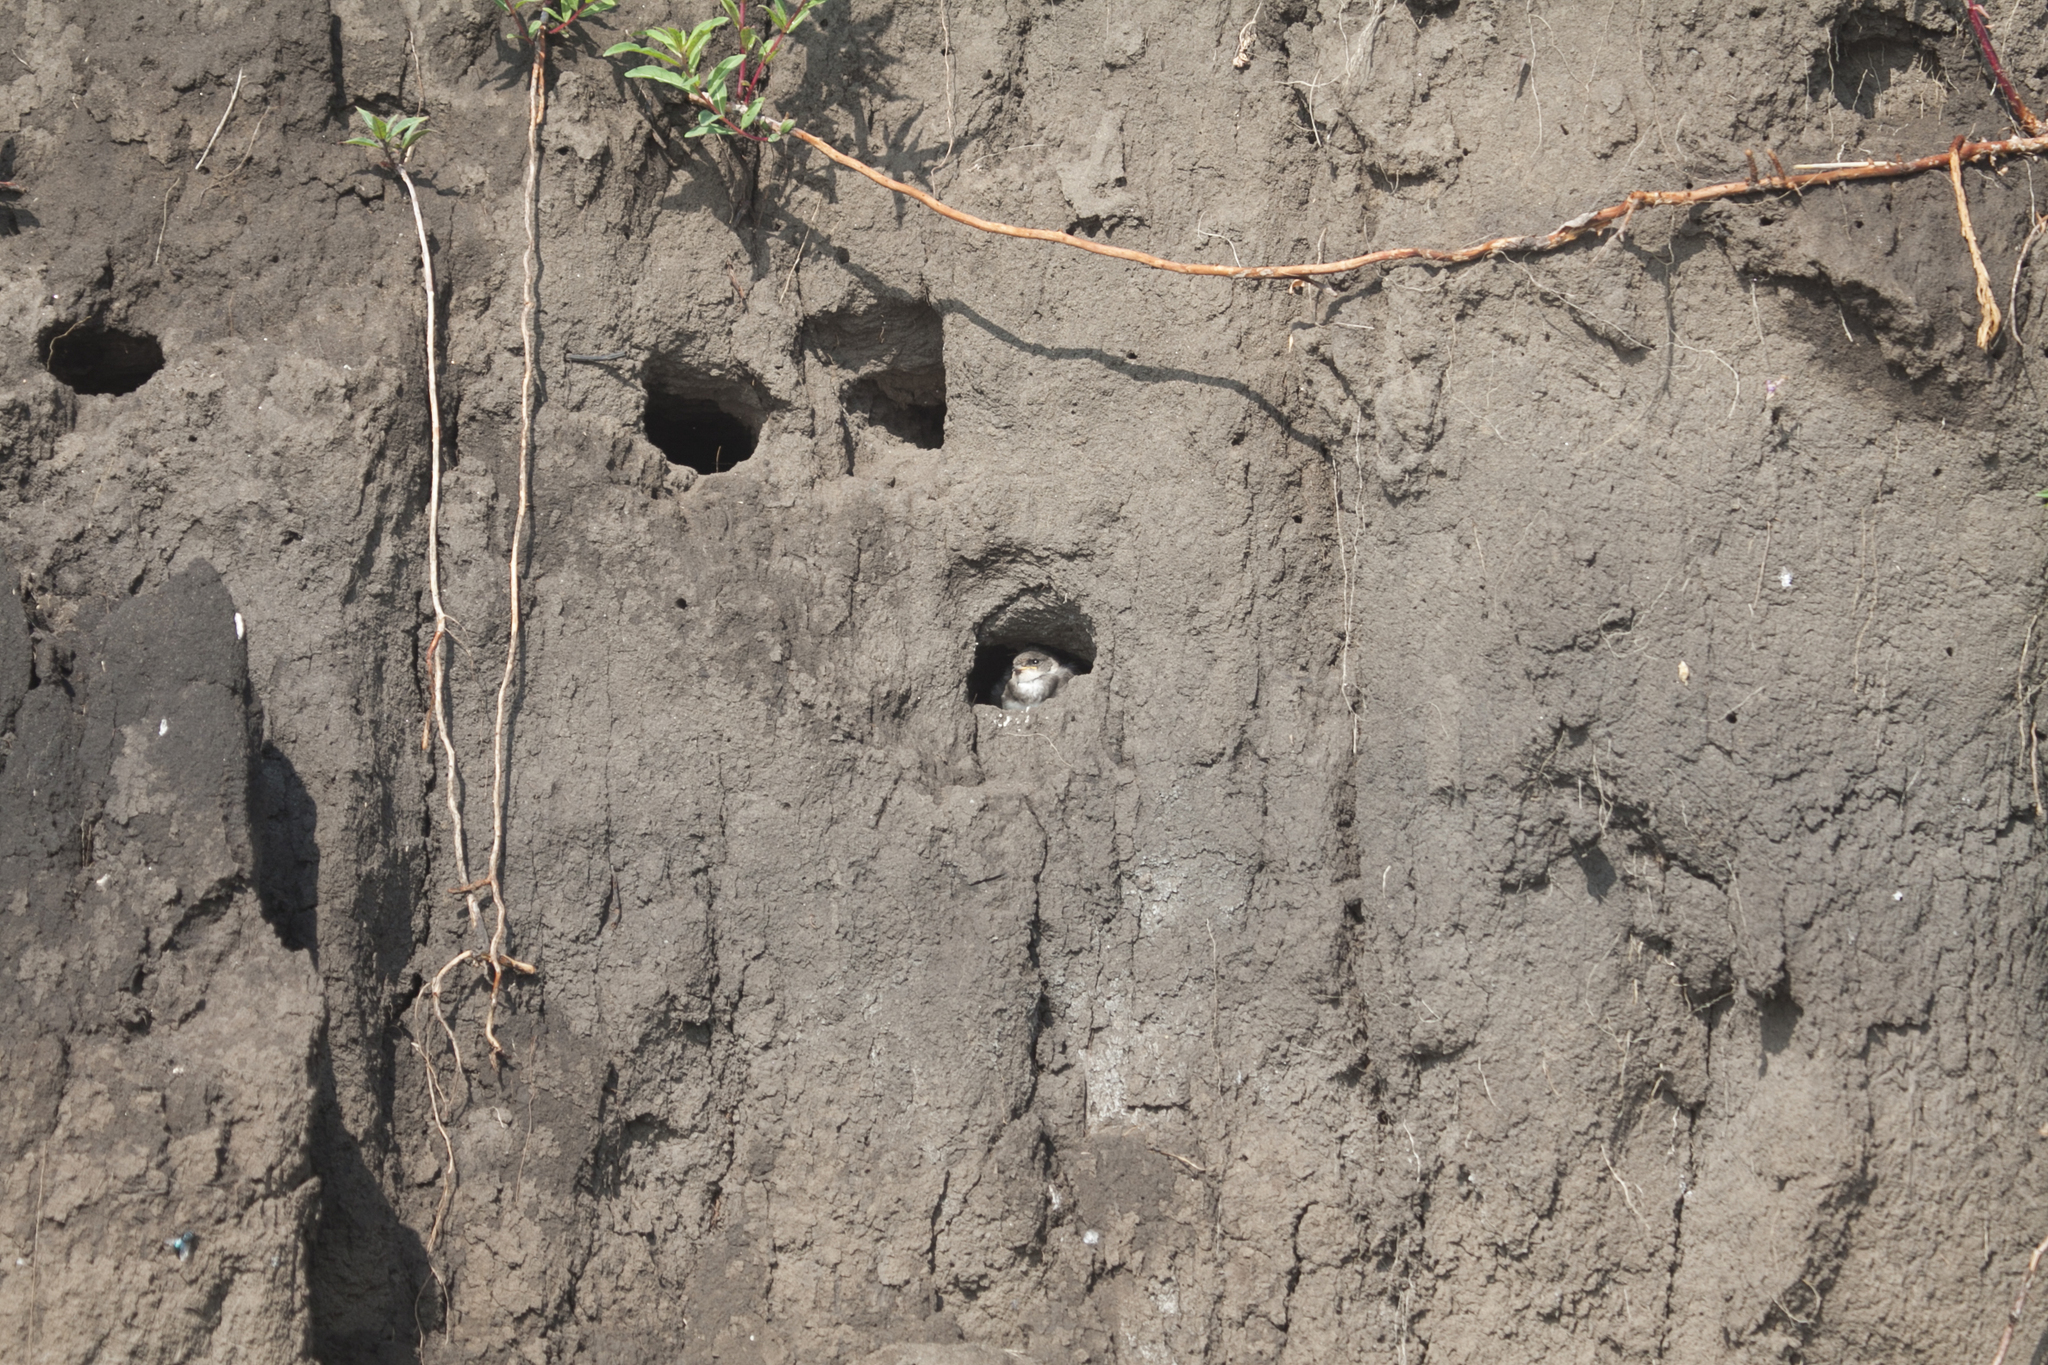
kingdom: Animalia
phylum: Chordata
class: Aves
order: Passeriformes
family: Hirundinidae
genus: Riparia
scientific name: Riparia riparia
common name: Sand martin
